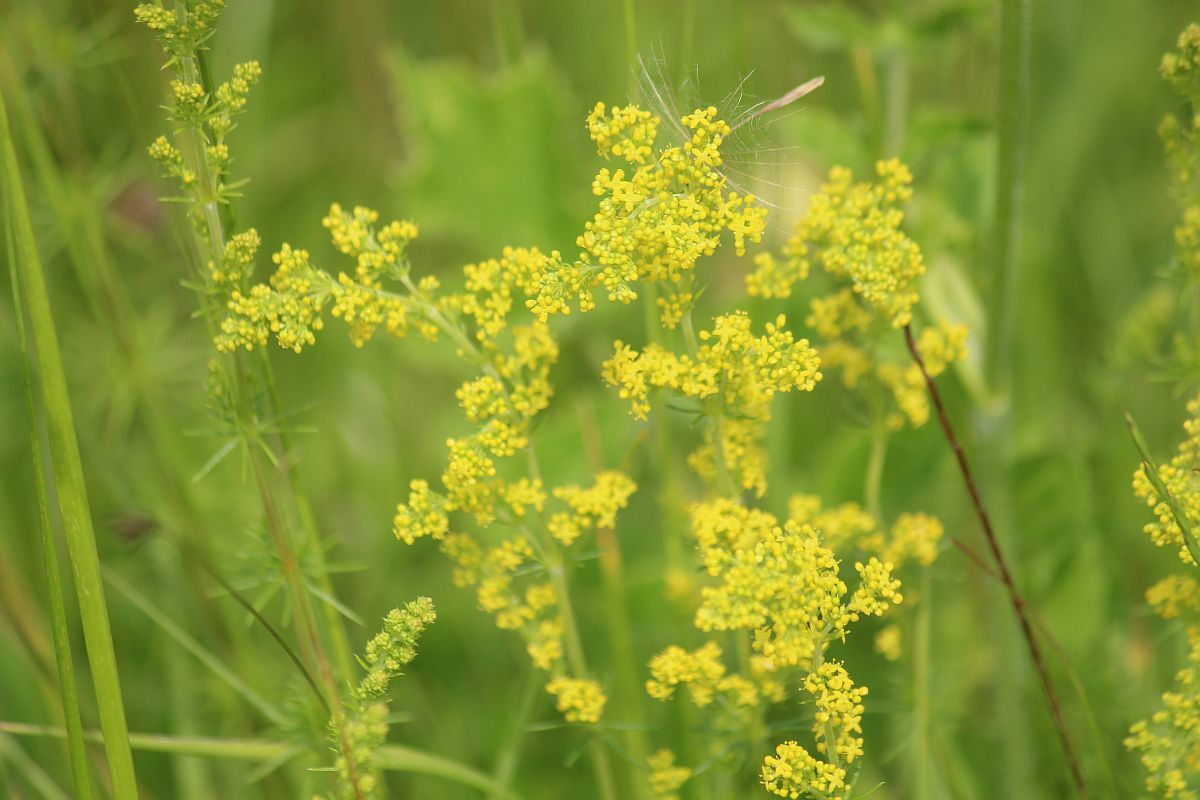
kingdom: Plantae
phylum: Tracheophyta
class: Magnoliopsida
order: Gentianales
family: Rubiaceae
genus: Galium
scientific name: Galium verum
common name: Lady's bedstraw
